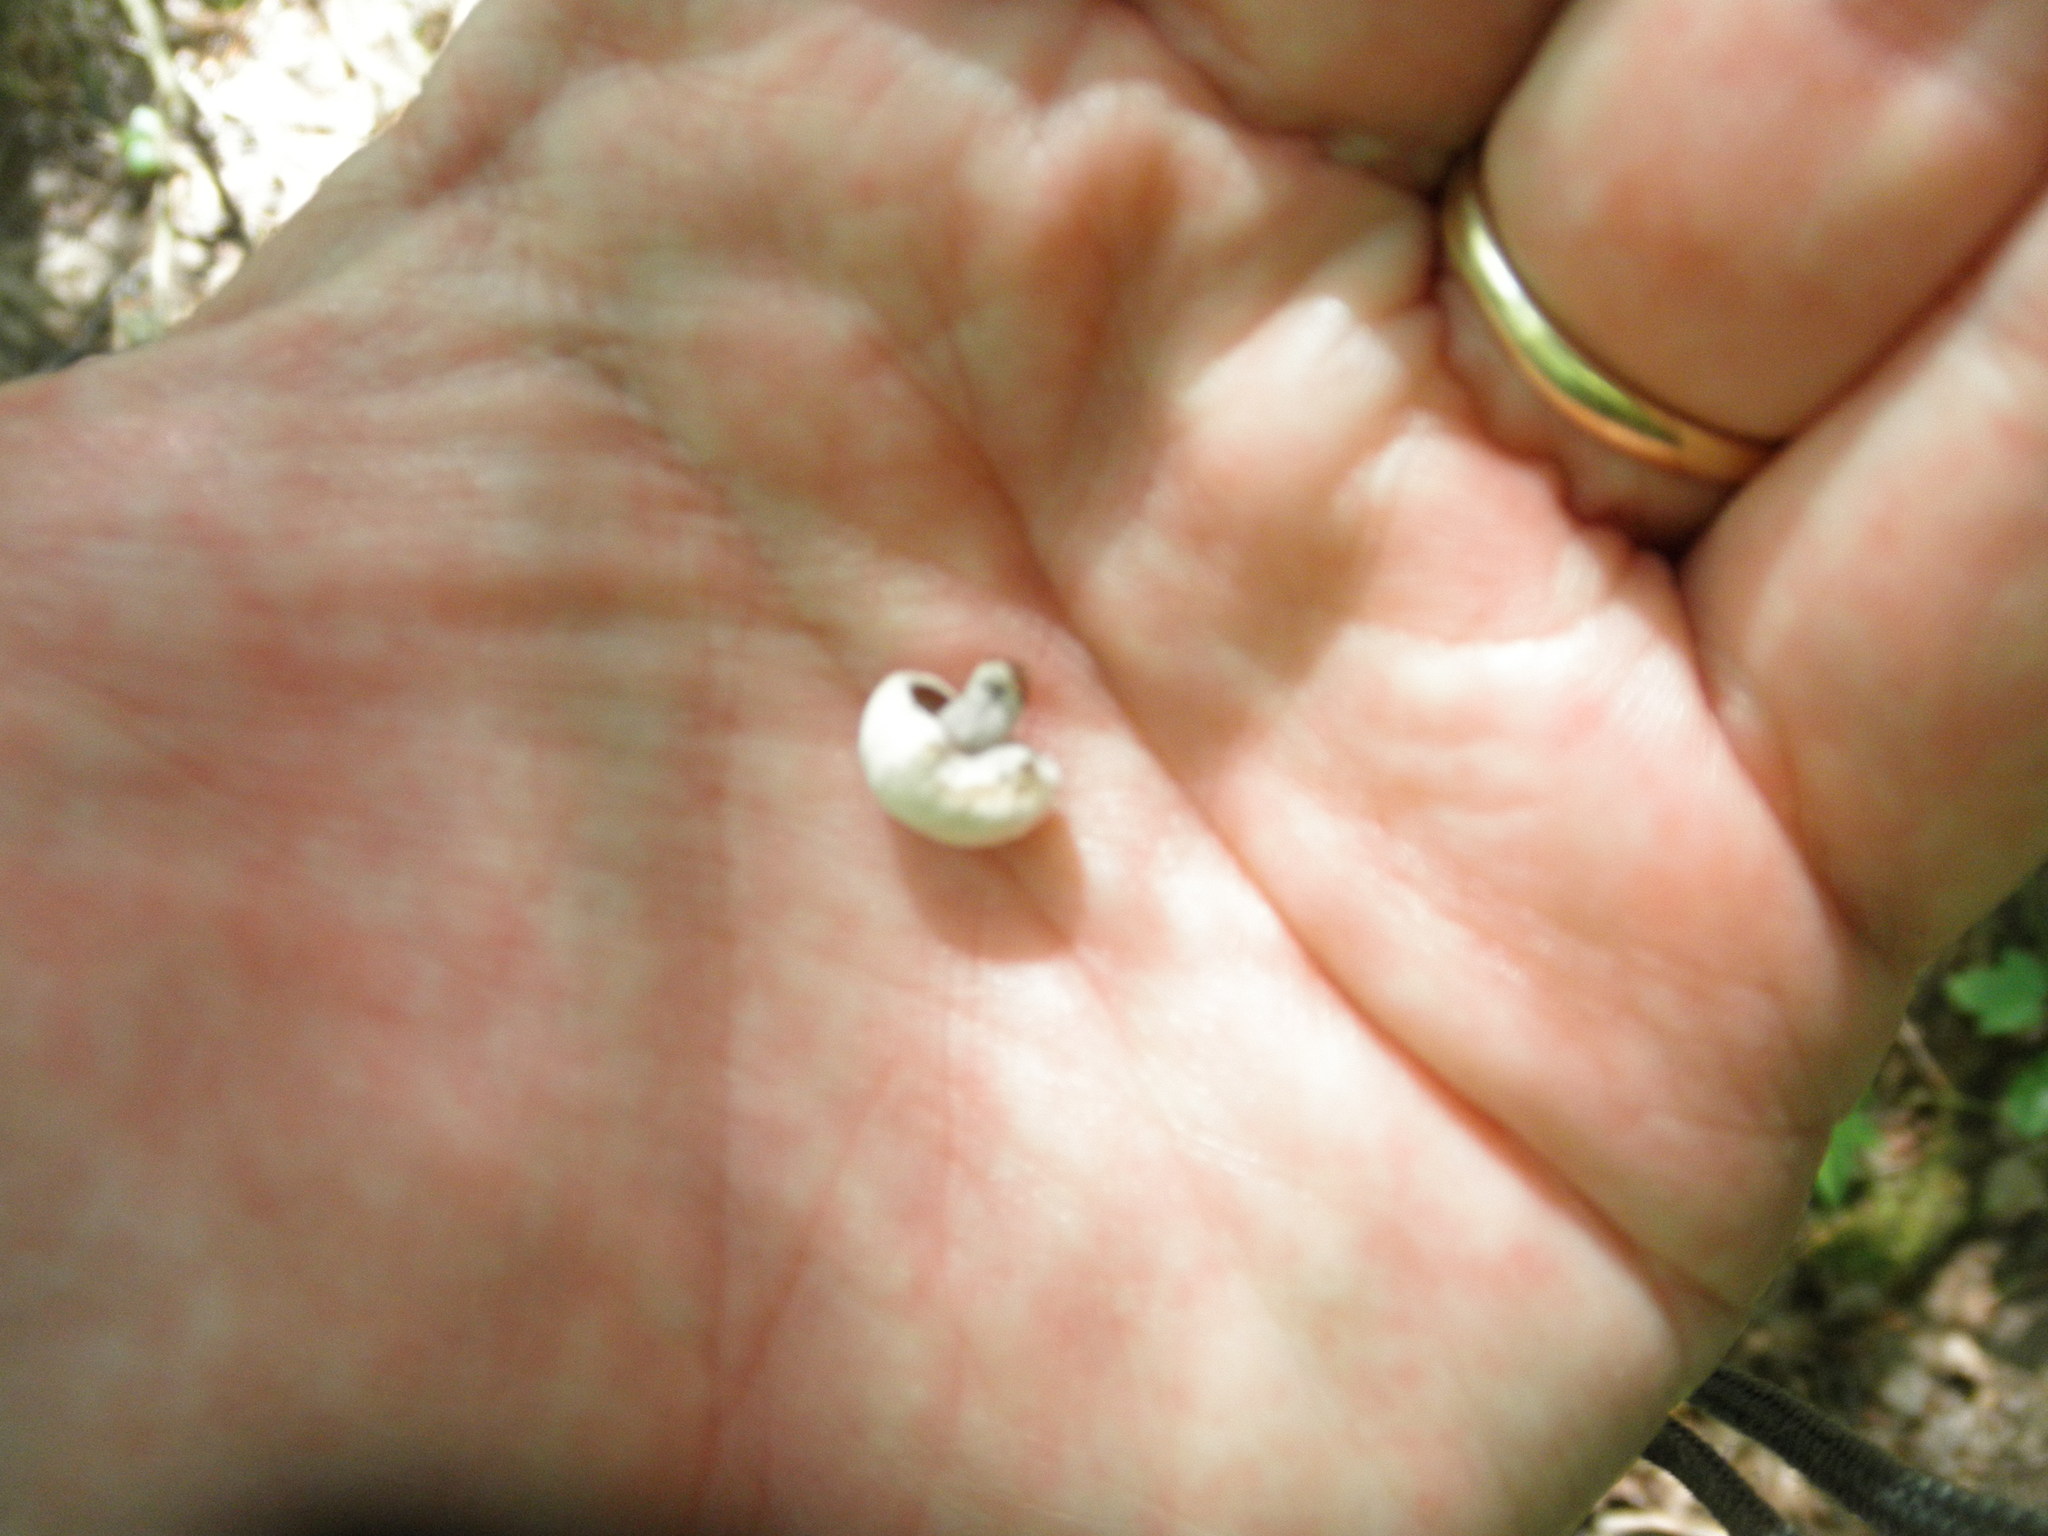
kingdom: Fungi
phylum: Basidiomycota
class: Agaricomycetes
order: Agaricales
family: Lyophyllaceae
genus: Asterophora
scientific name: Asterophora lycoperdoides
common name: Pick-a-back toadstool
